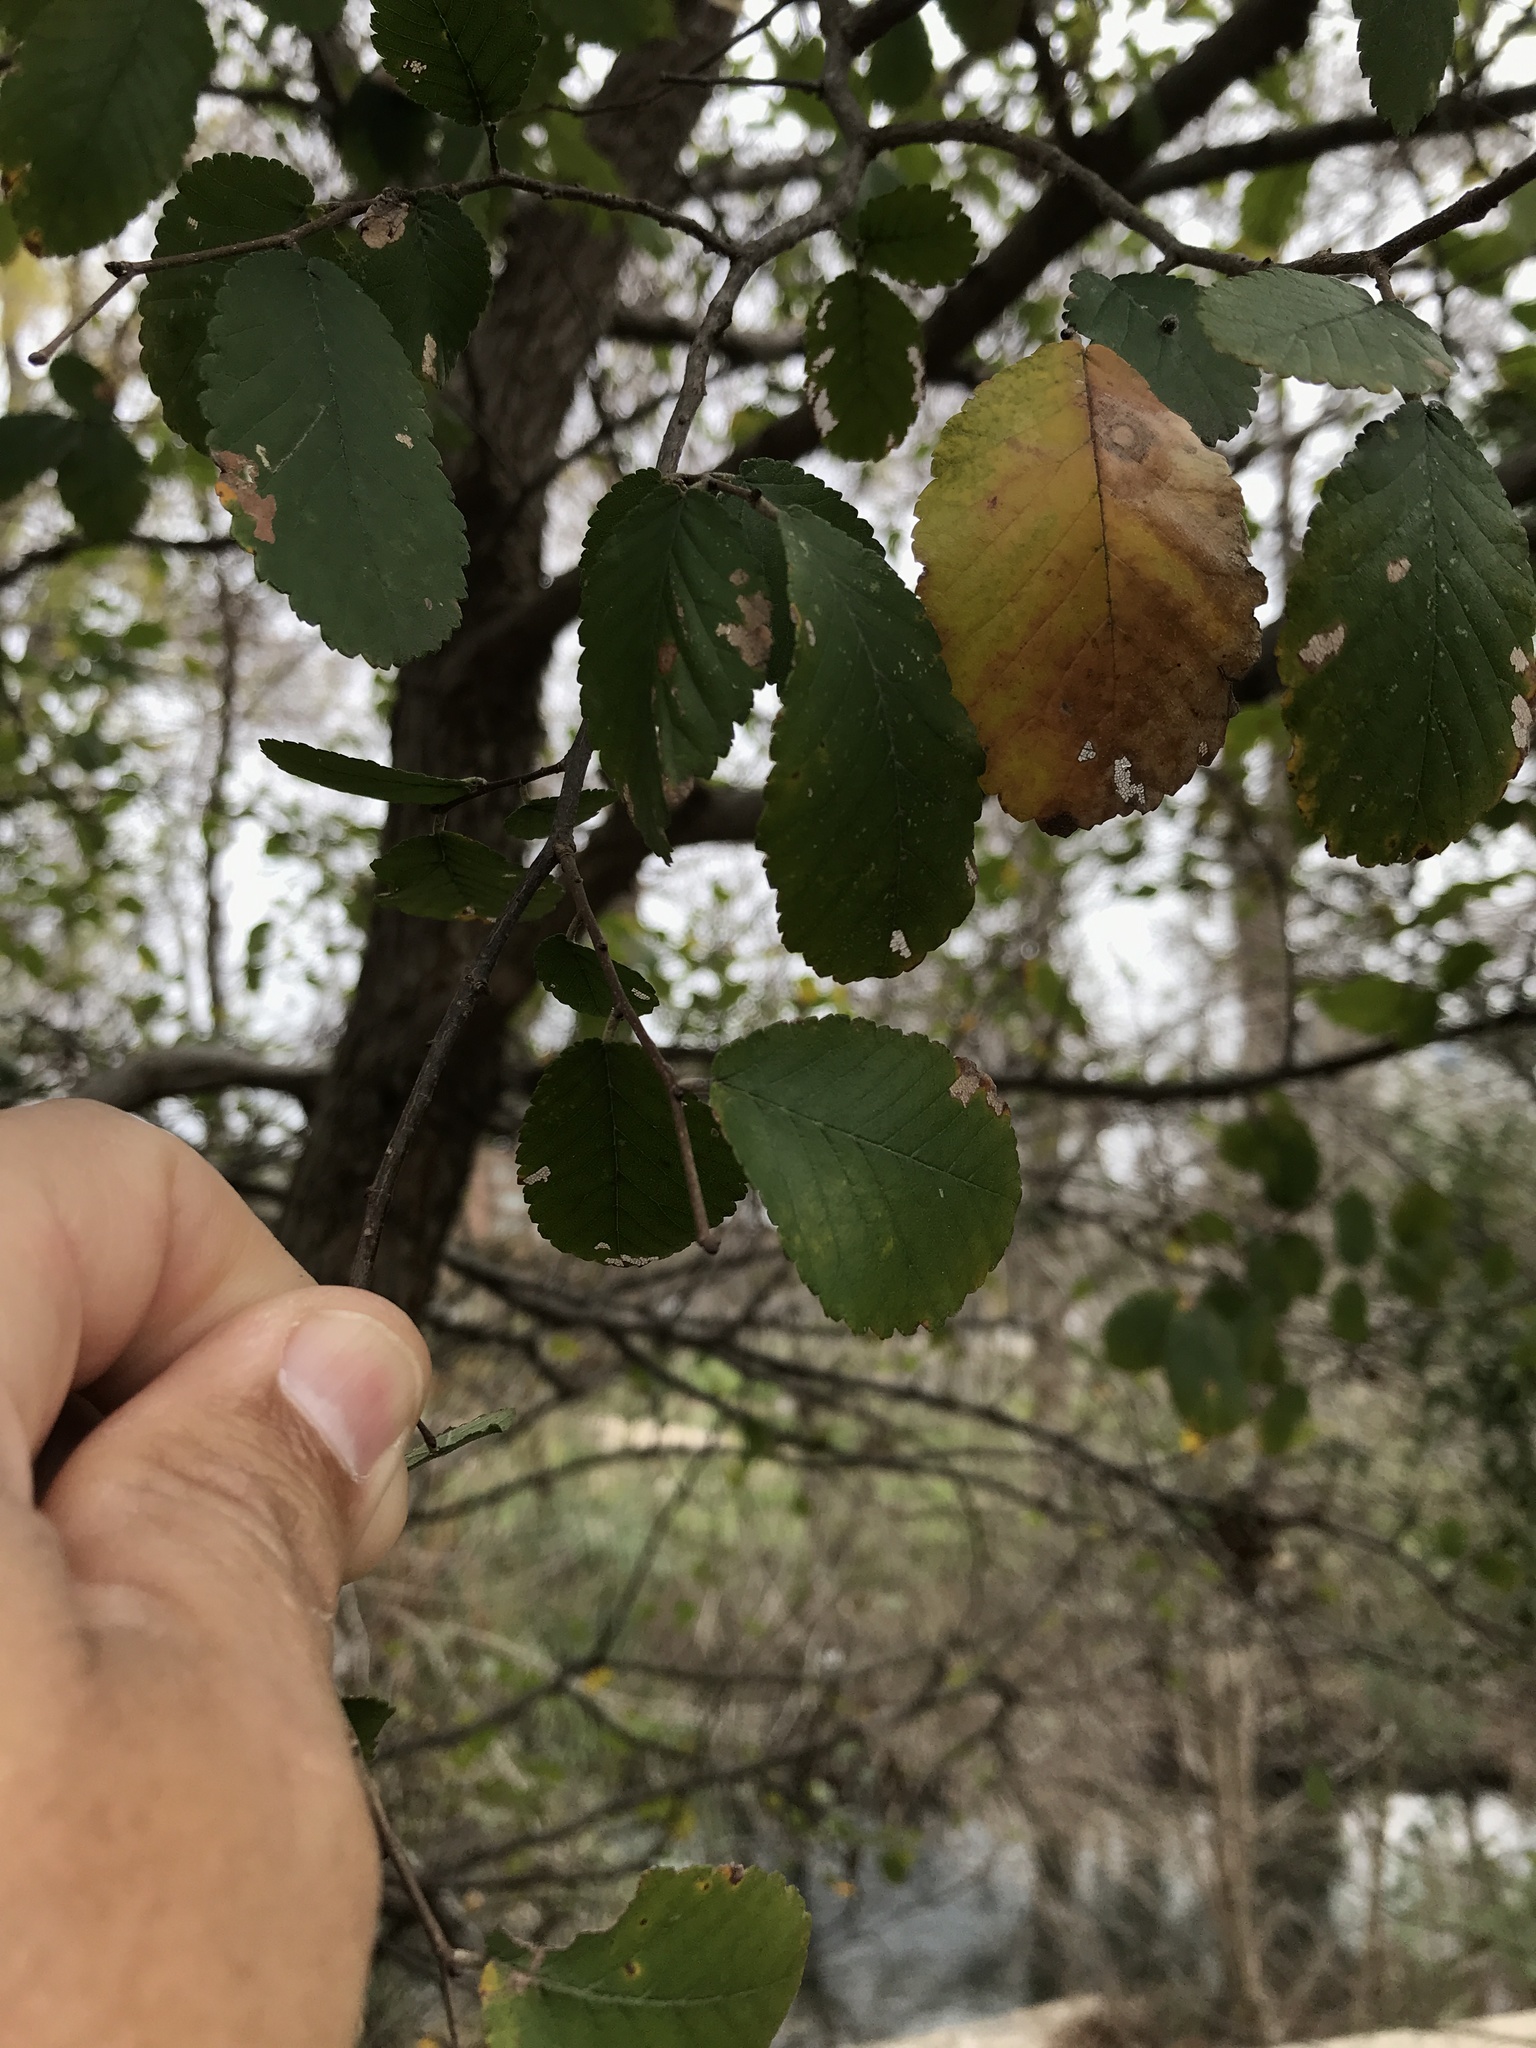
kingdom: Plantae
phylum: Tracheophyta
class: Magnoliopsida
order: Rosales
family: Ulmaceae
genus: Ulmus
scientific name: Ulmus crassifolia
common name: Basket elm
